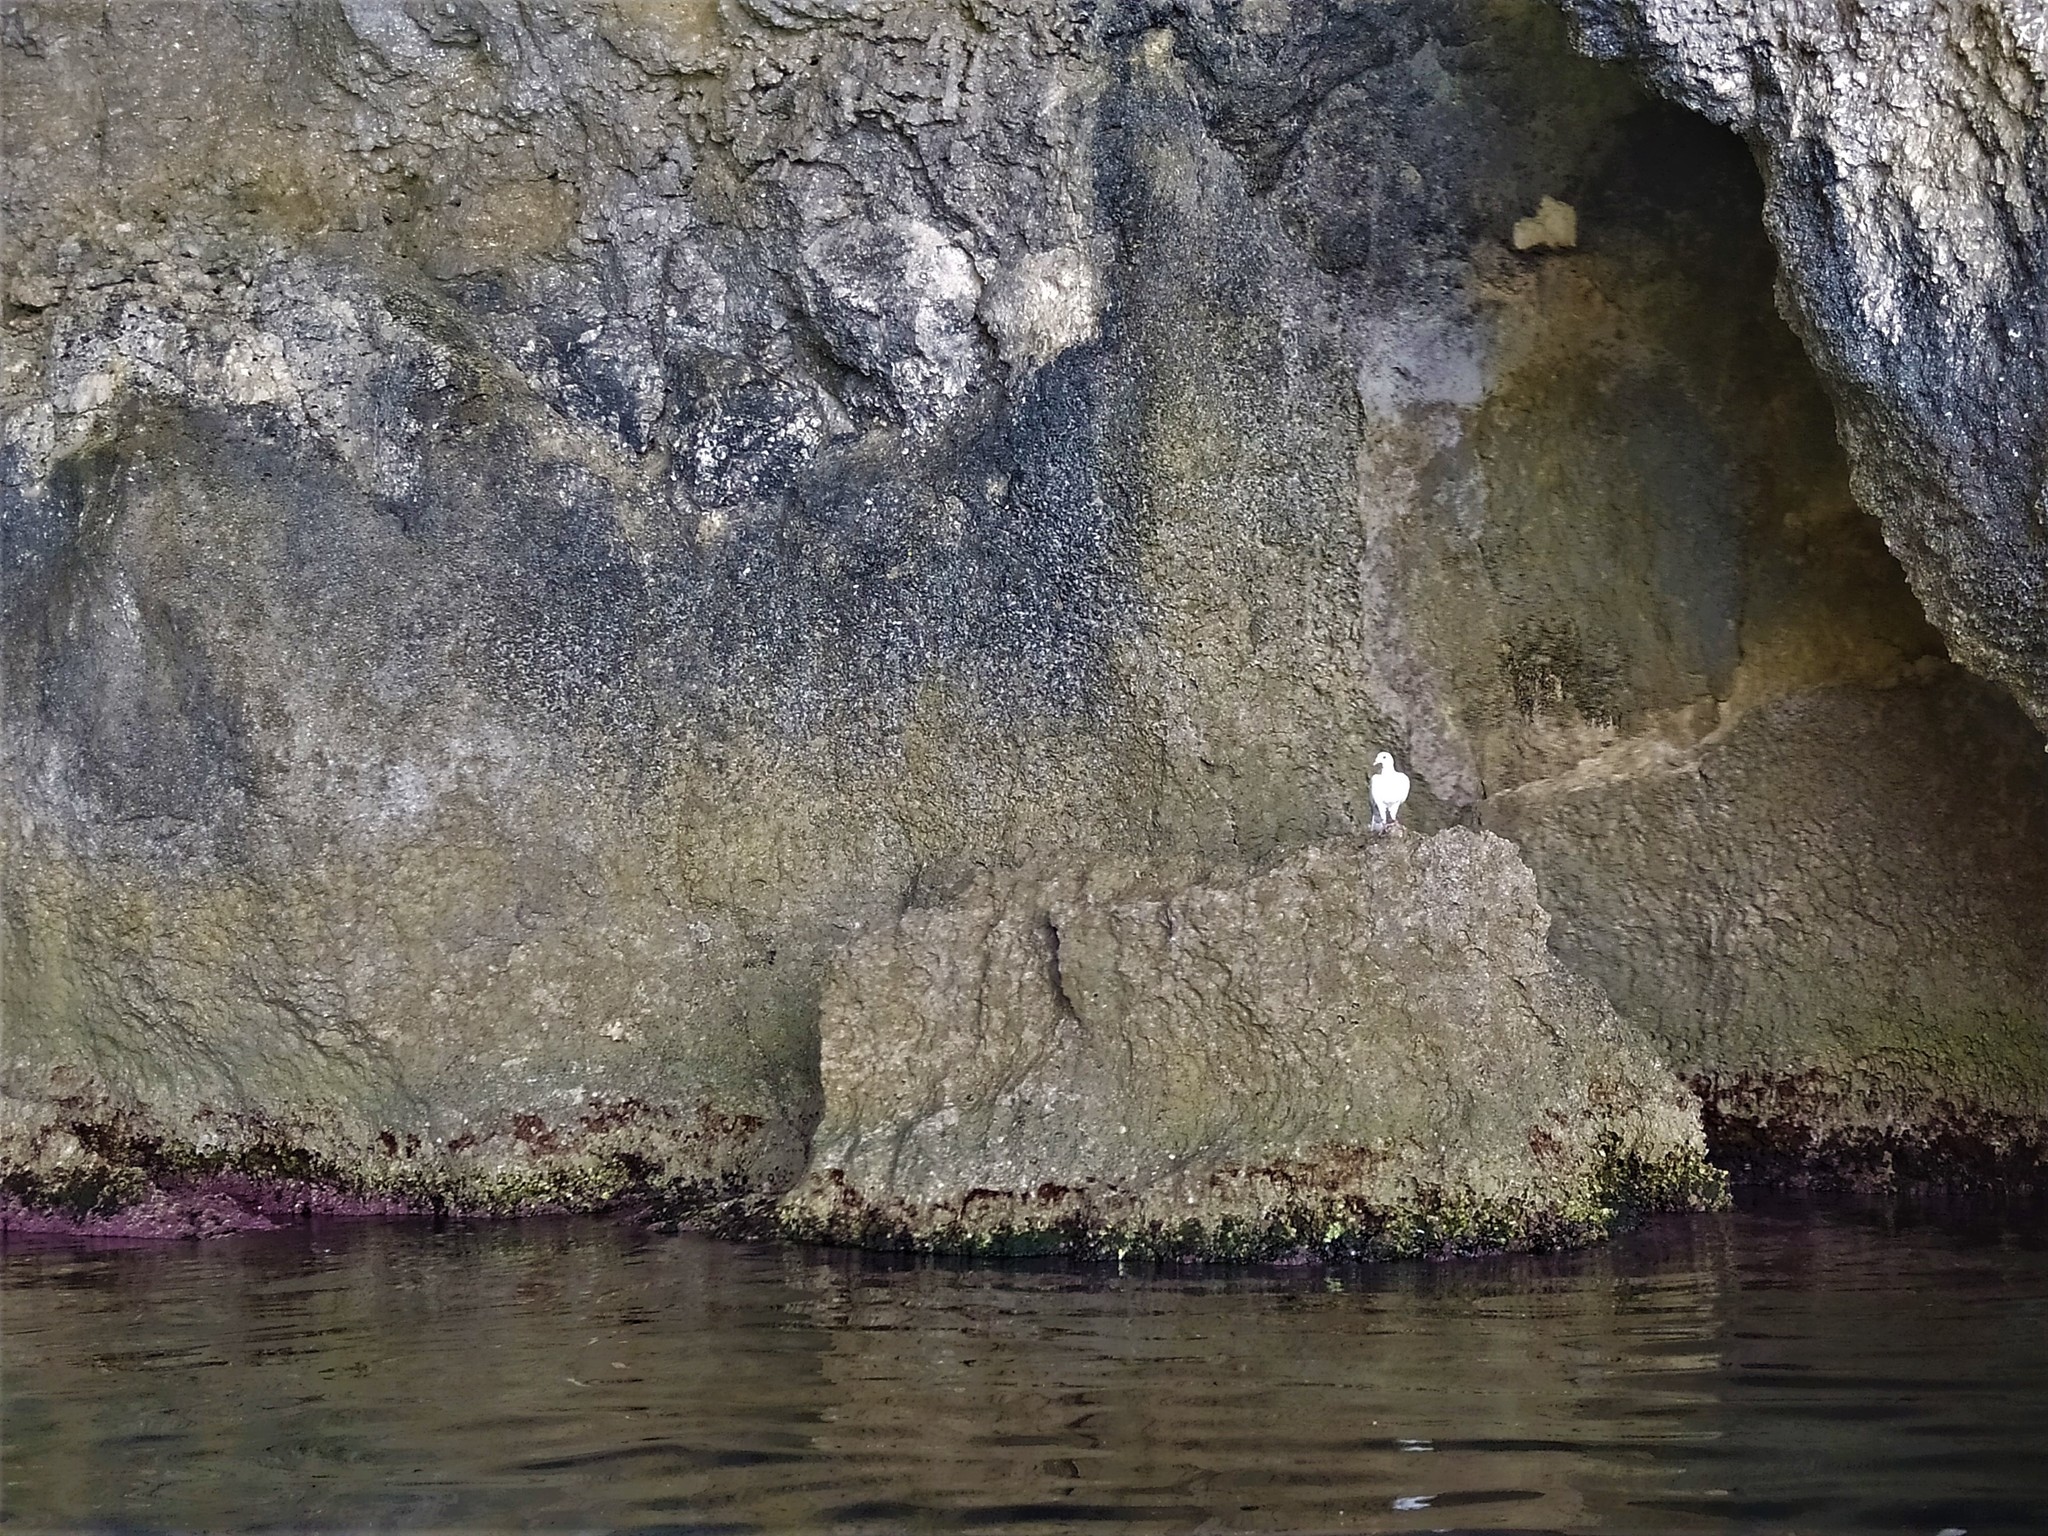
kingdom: Animalia
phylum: Chordata
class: Aves
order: Columbiformes
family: Columbidae
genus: Columba
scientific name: Columba livia
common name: Rock pigeon
